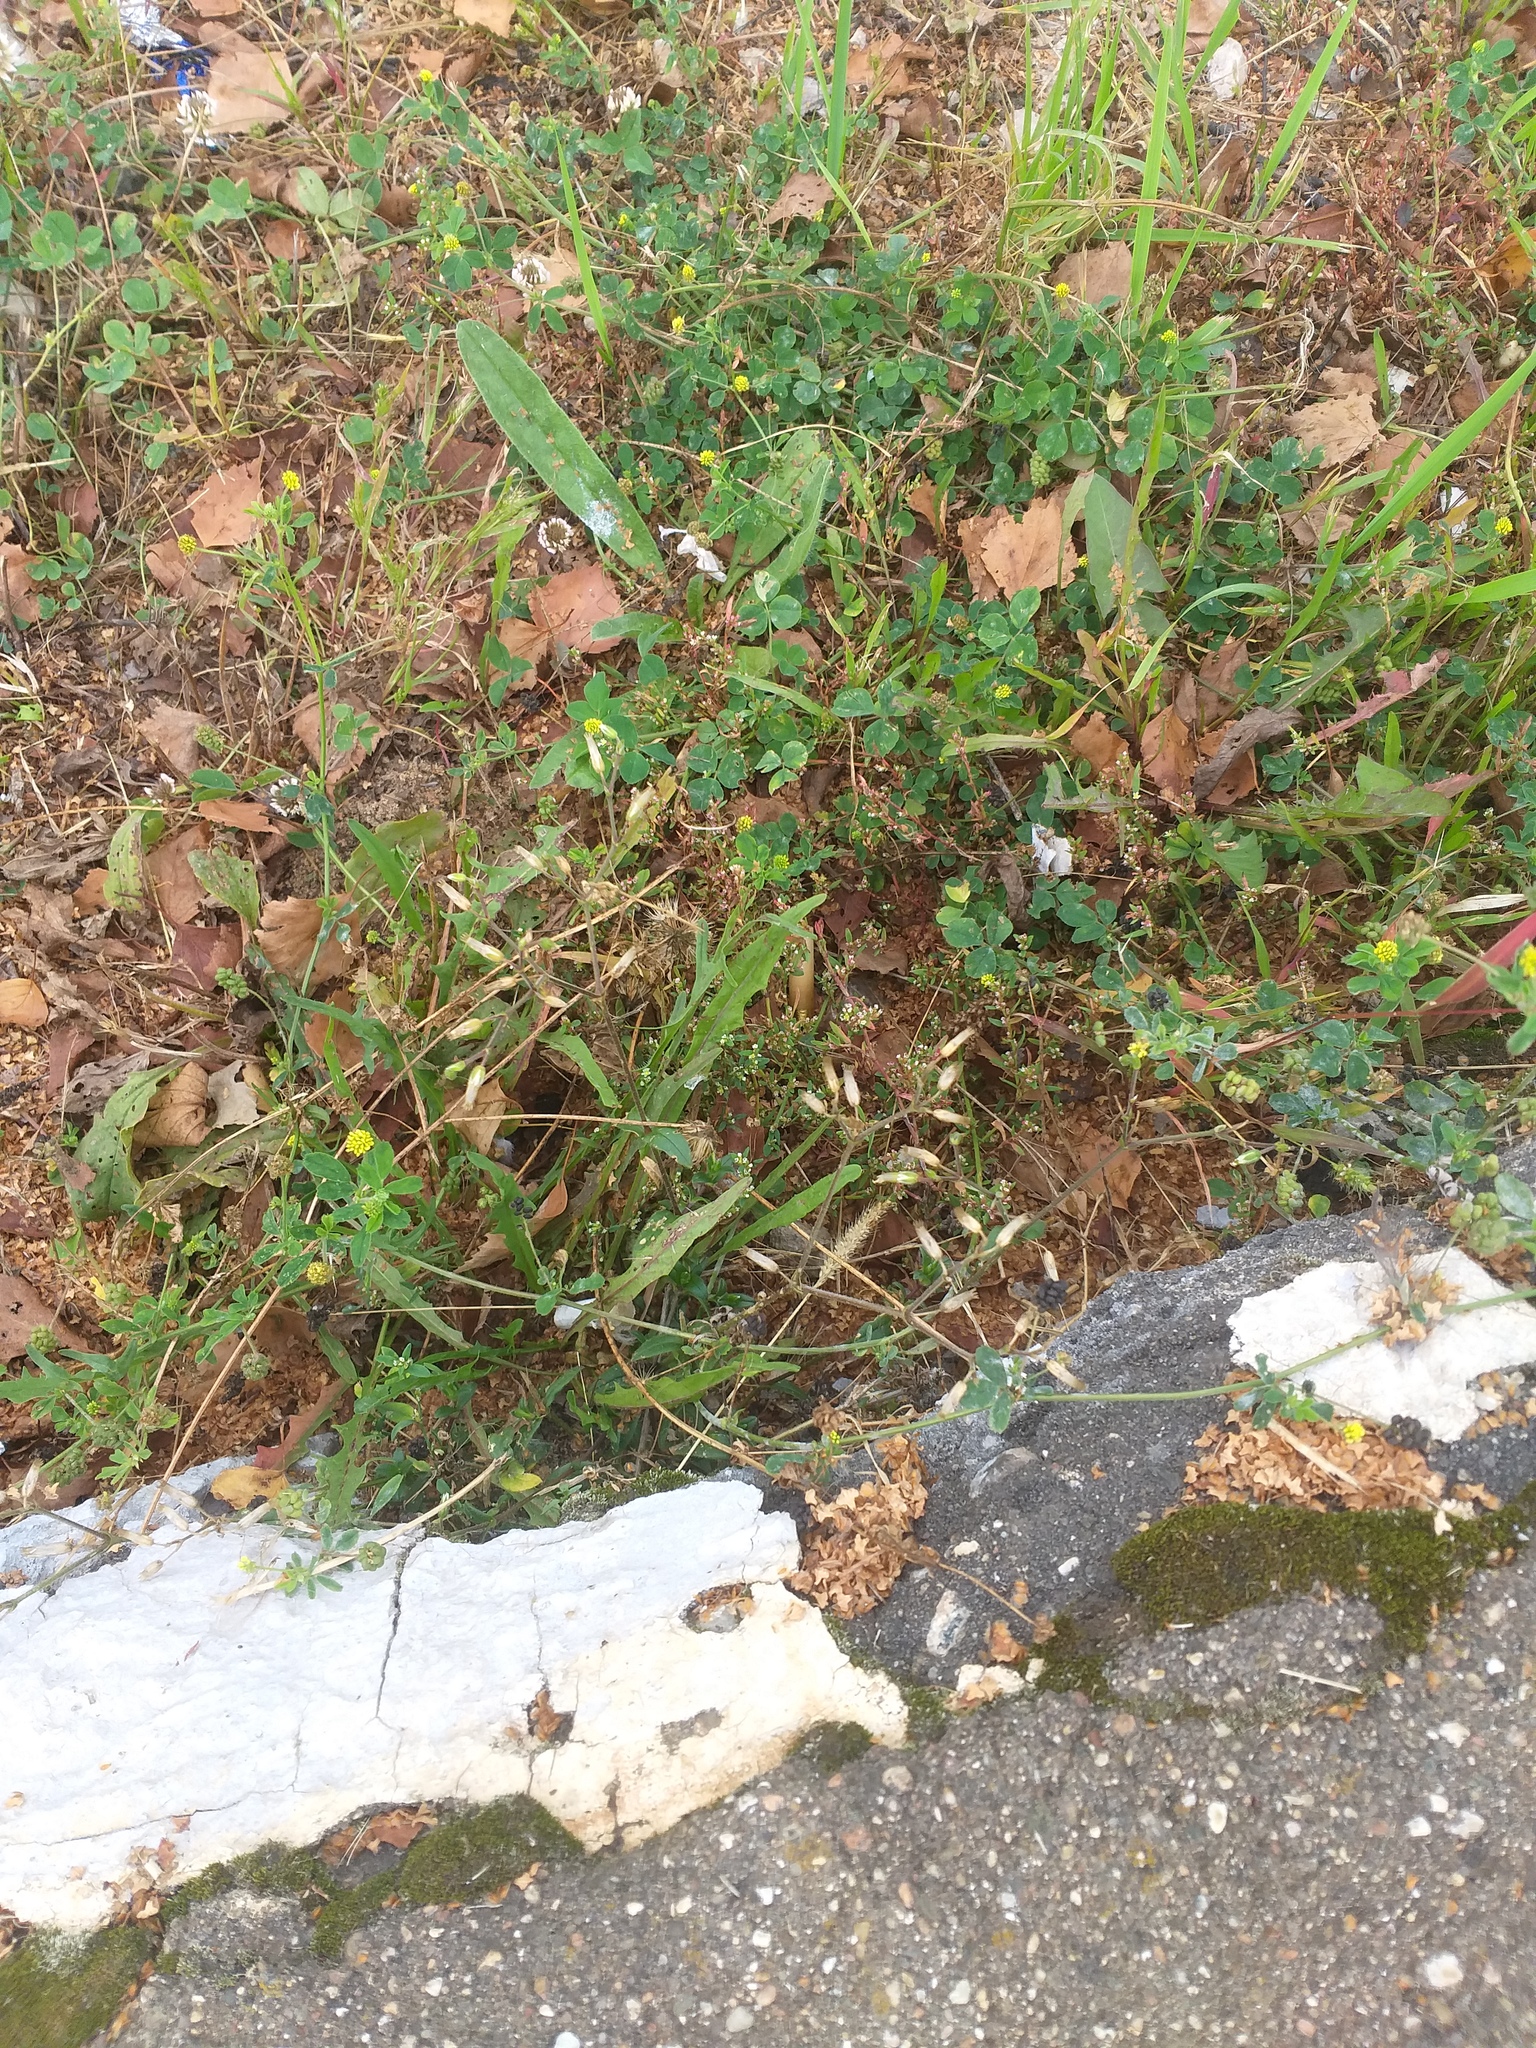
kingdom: Plantae
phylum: Tracheophyta
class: Magnoliopsida
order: Caryophyllales
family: Caryophyllaceae
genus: Cerastium
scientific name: Cerastium holosteoides
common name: Big chickweed
